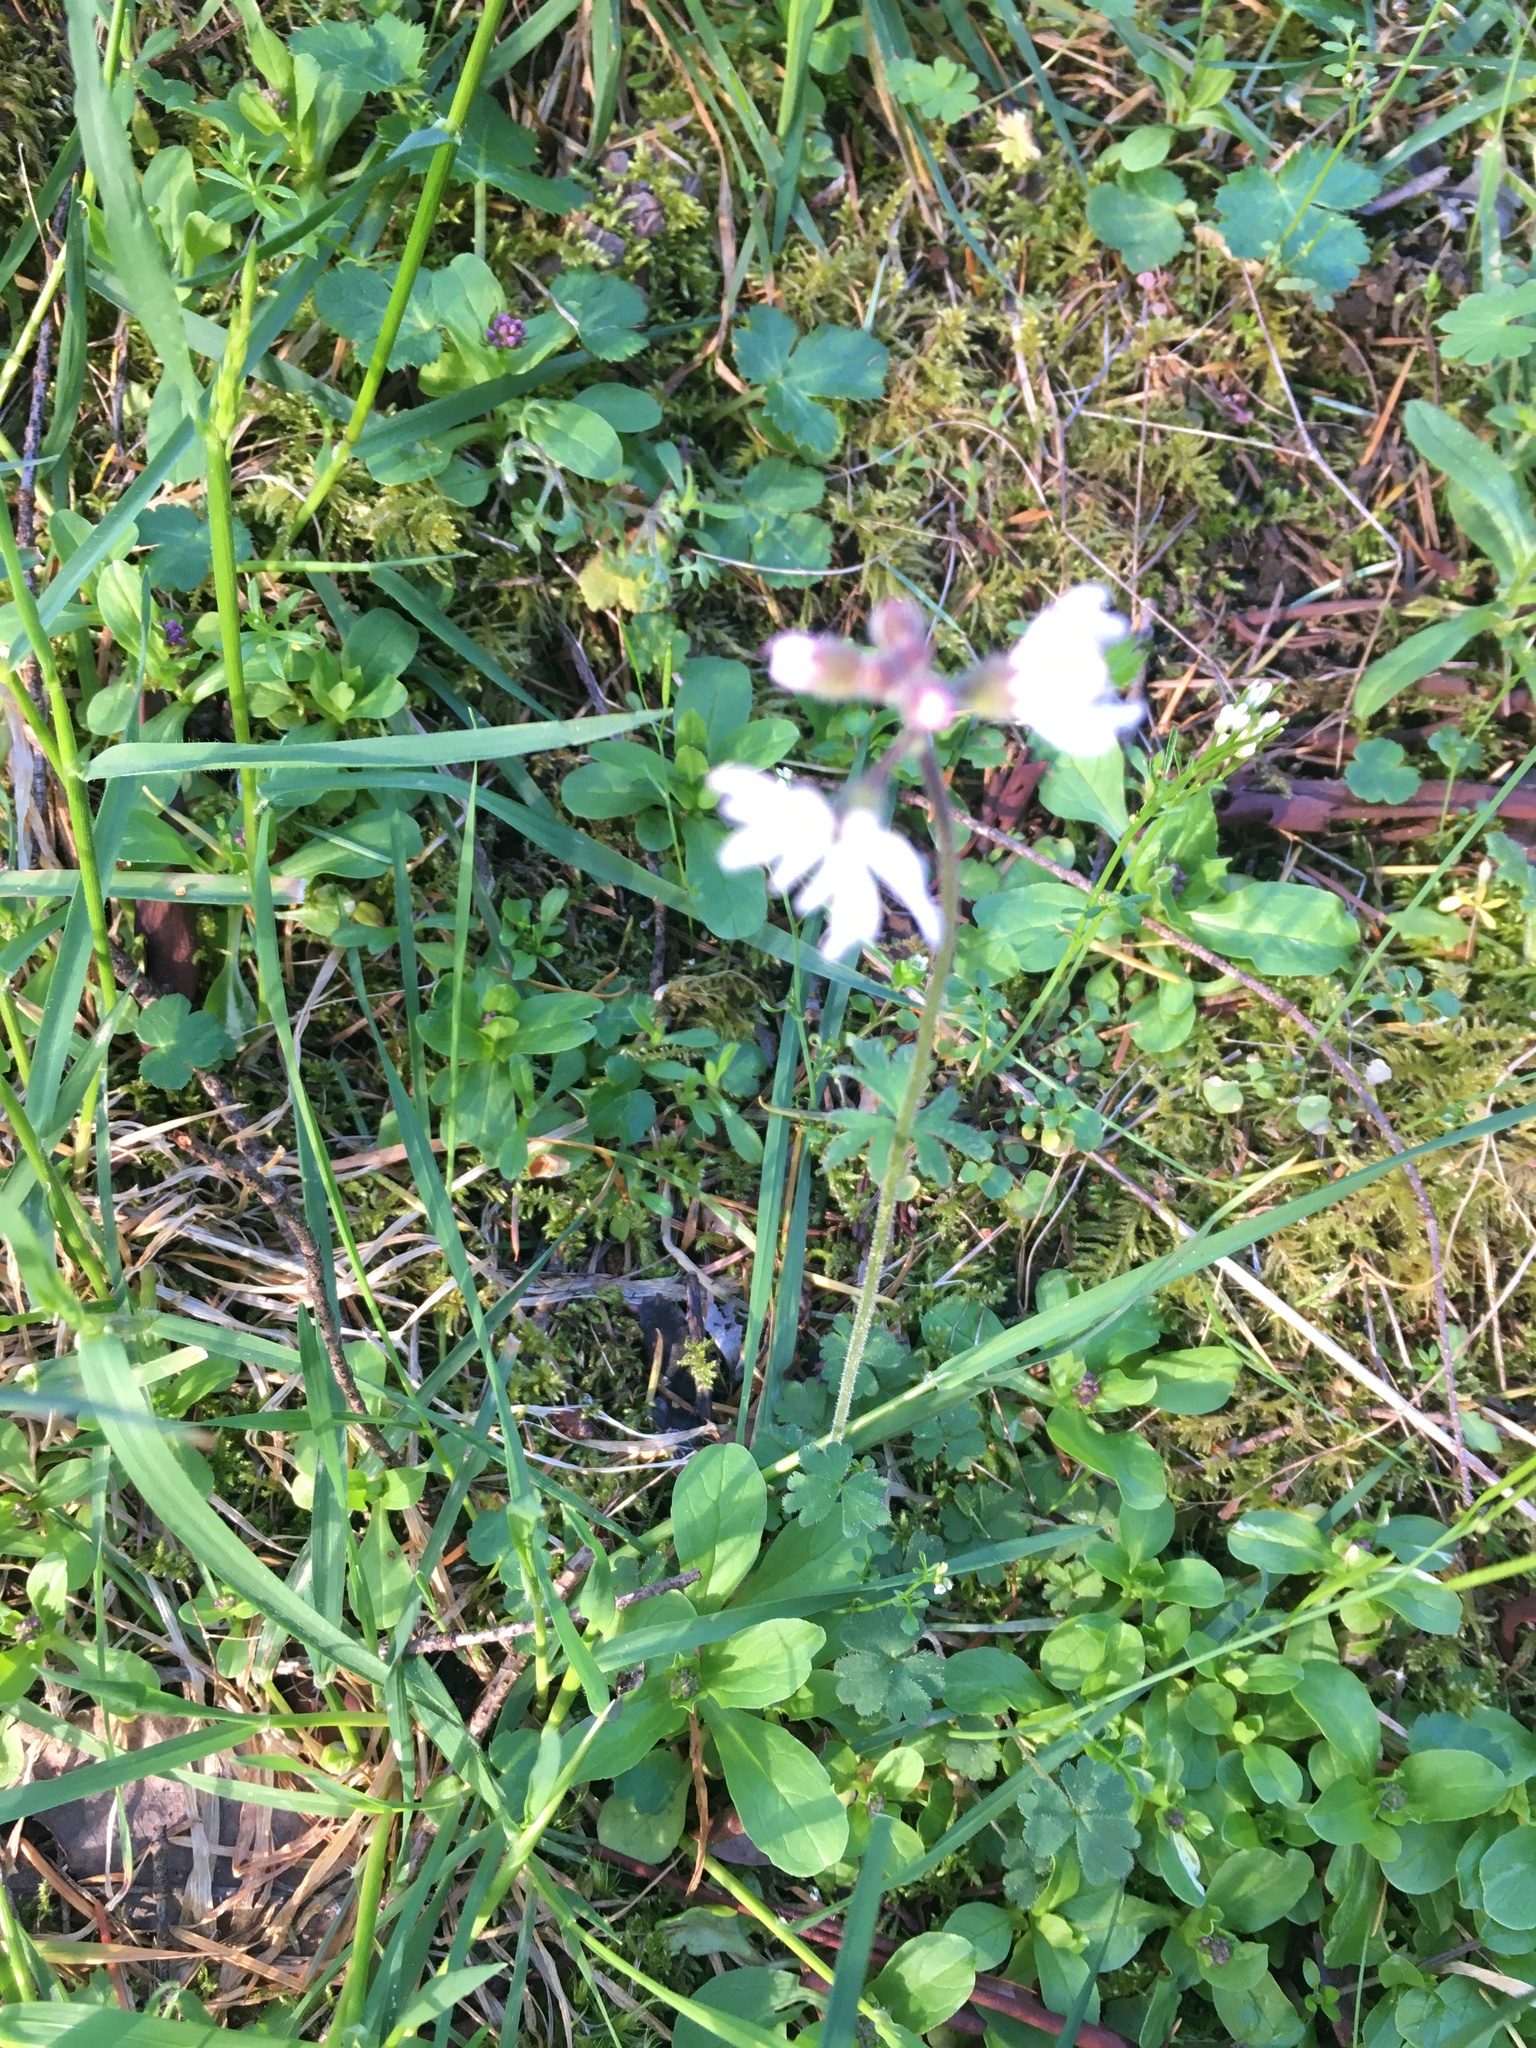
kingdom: Plantae
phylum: Tracheophyta
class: Magnoliopsida
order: Saxifragales
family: Saxifragaceae
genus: Lithophragma
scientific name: Lithophragma parviflorum
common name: Small-flowered fringe-cup
